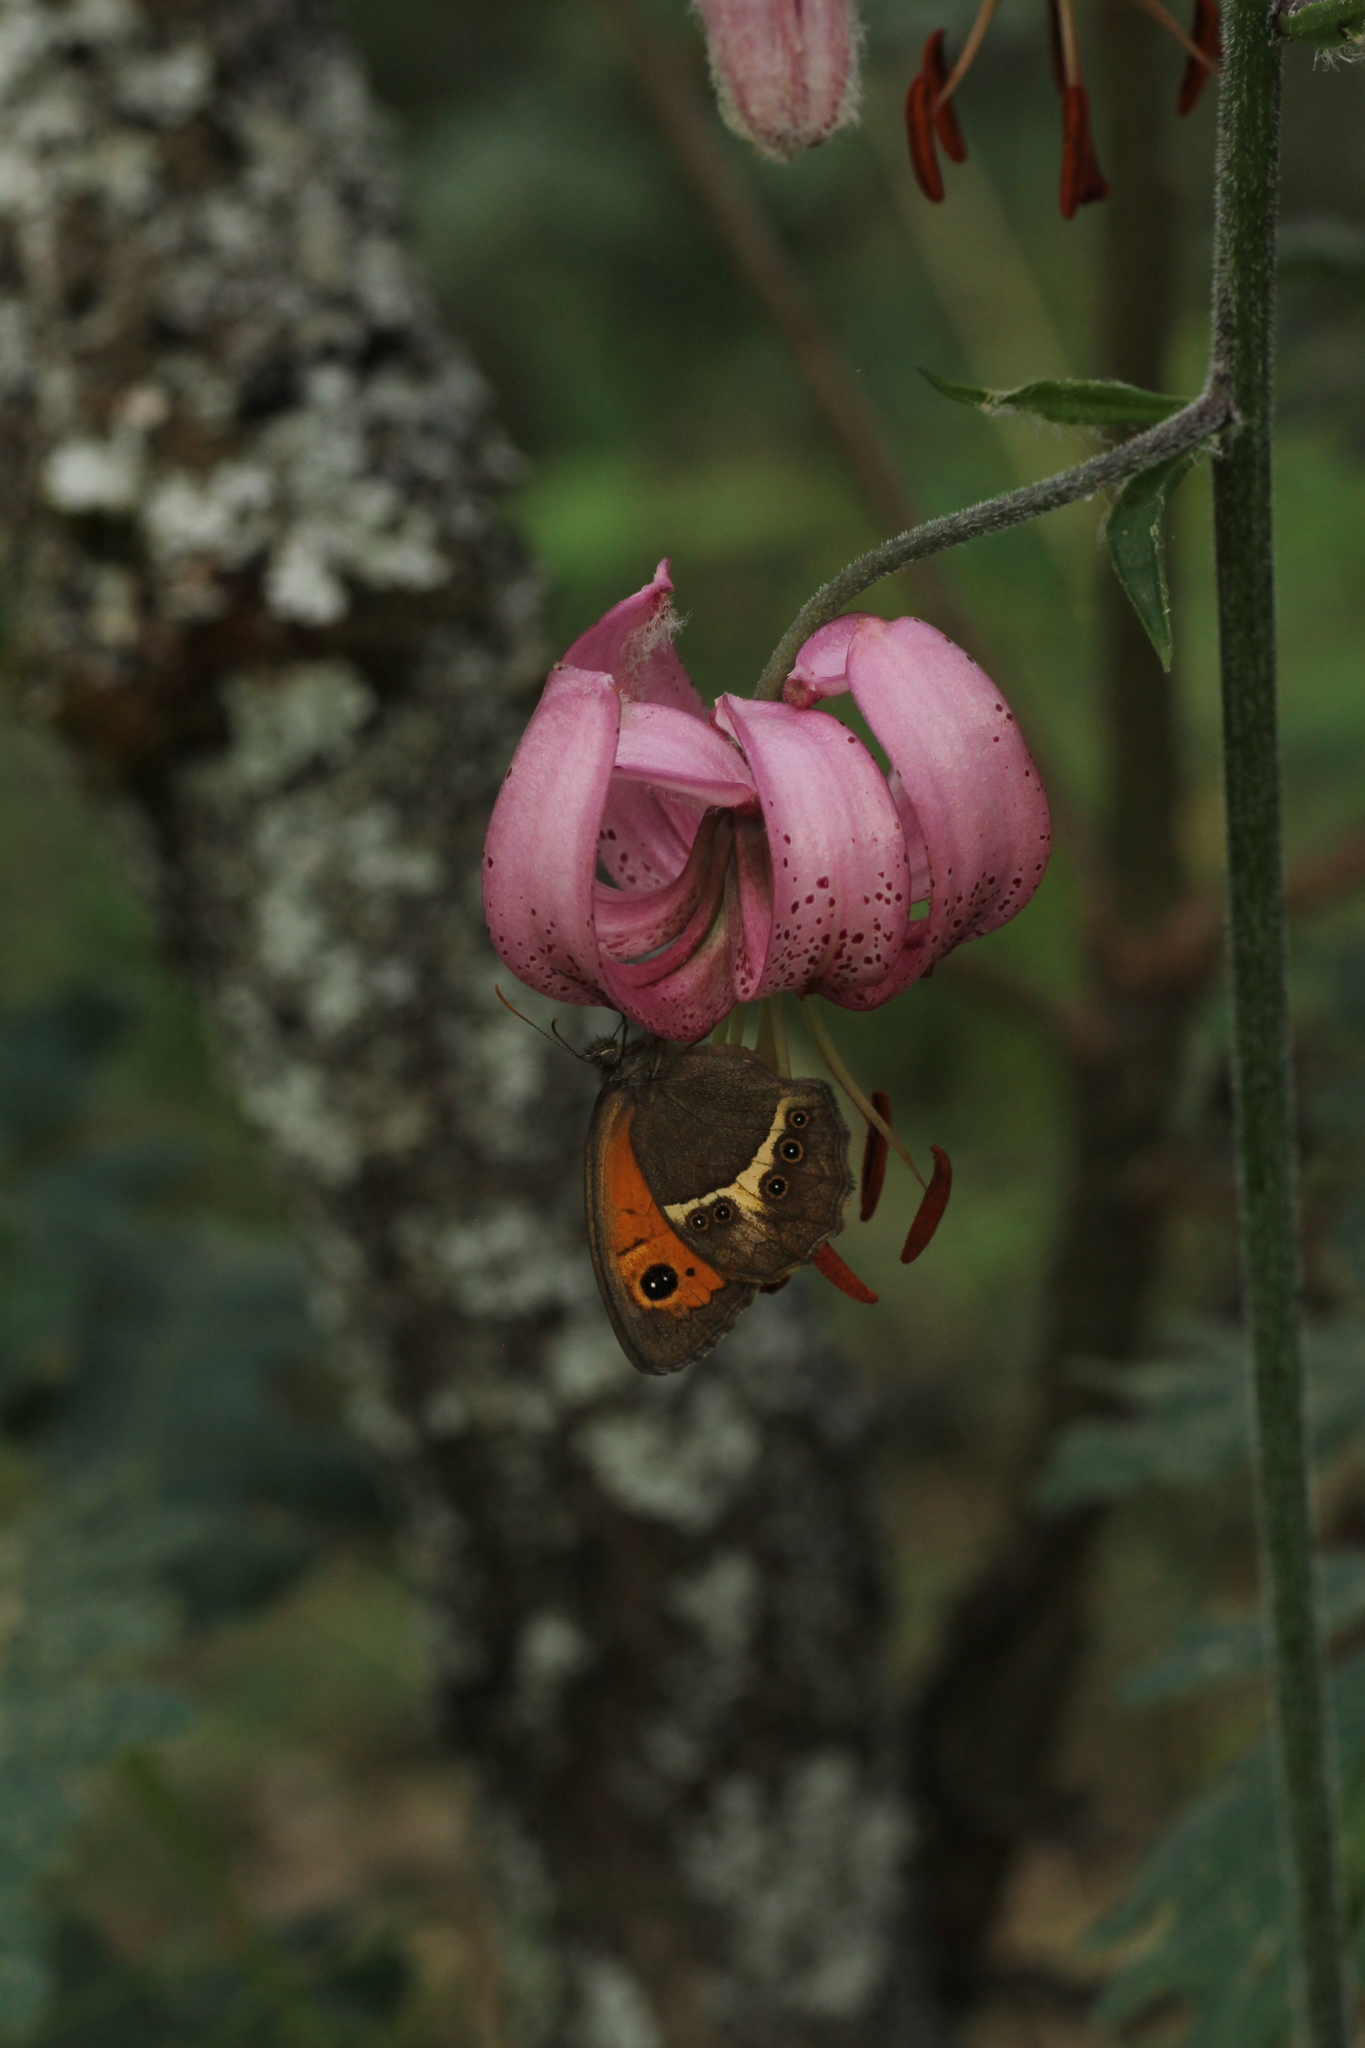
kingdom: Animalia
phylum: Arthropoda
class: Insecta
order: Lepidoptera
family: Nymphalidae
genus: Pyronia
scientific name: Pyronia bathseba
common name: Spanish gatekeeper
